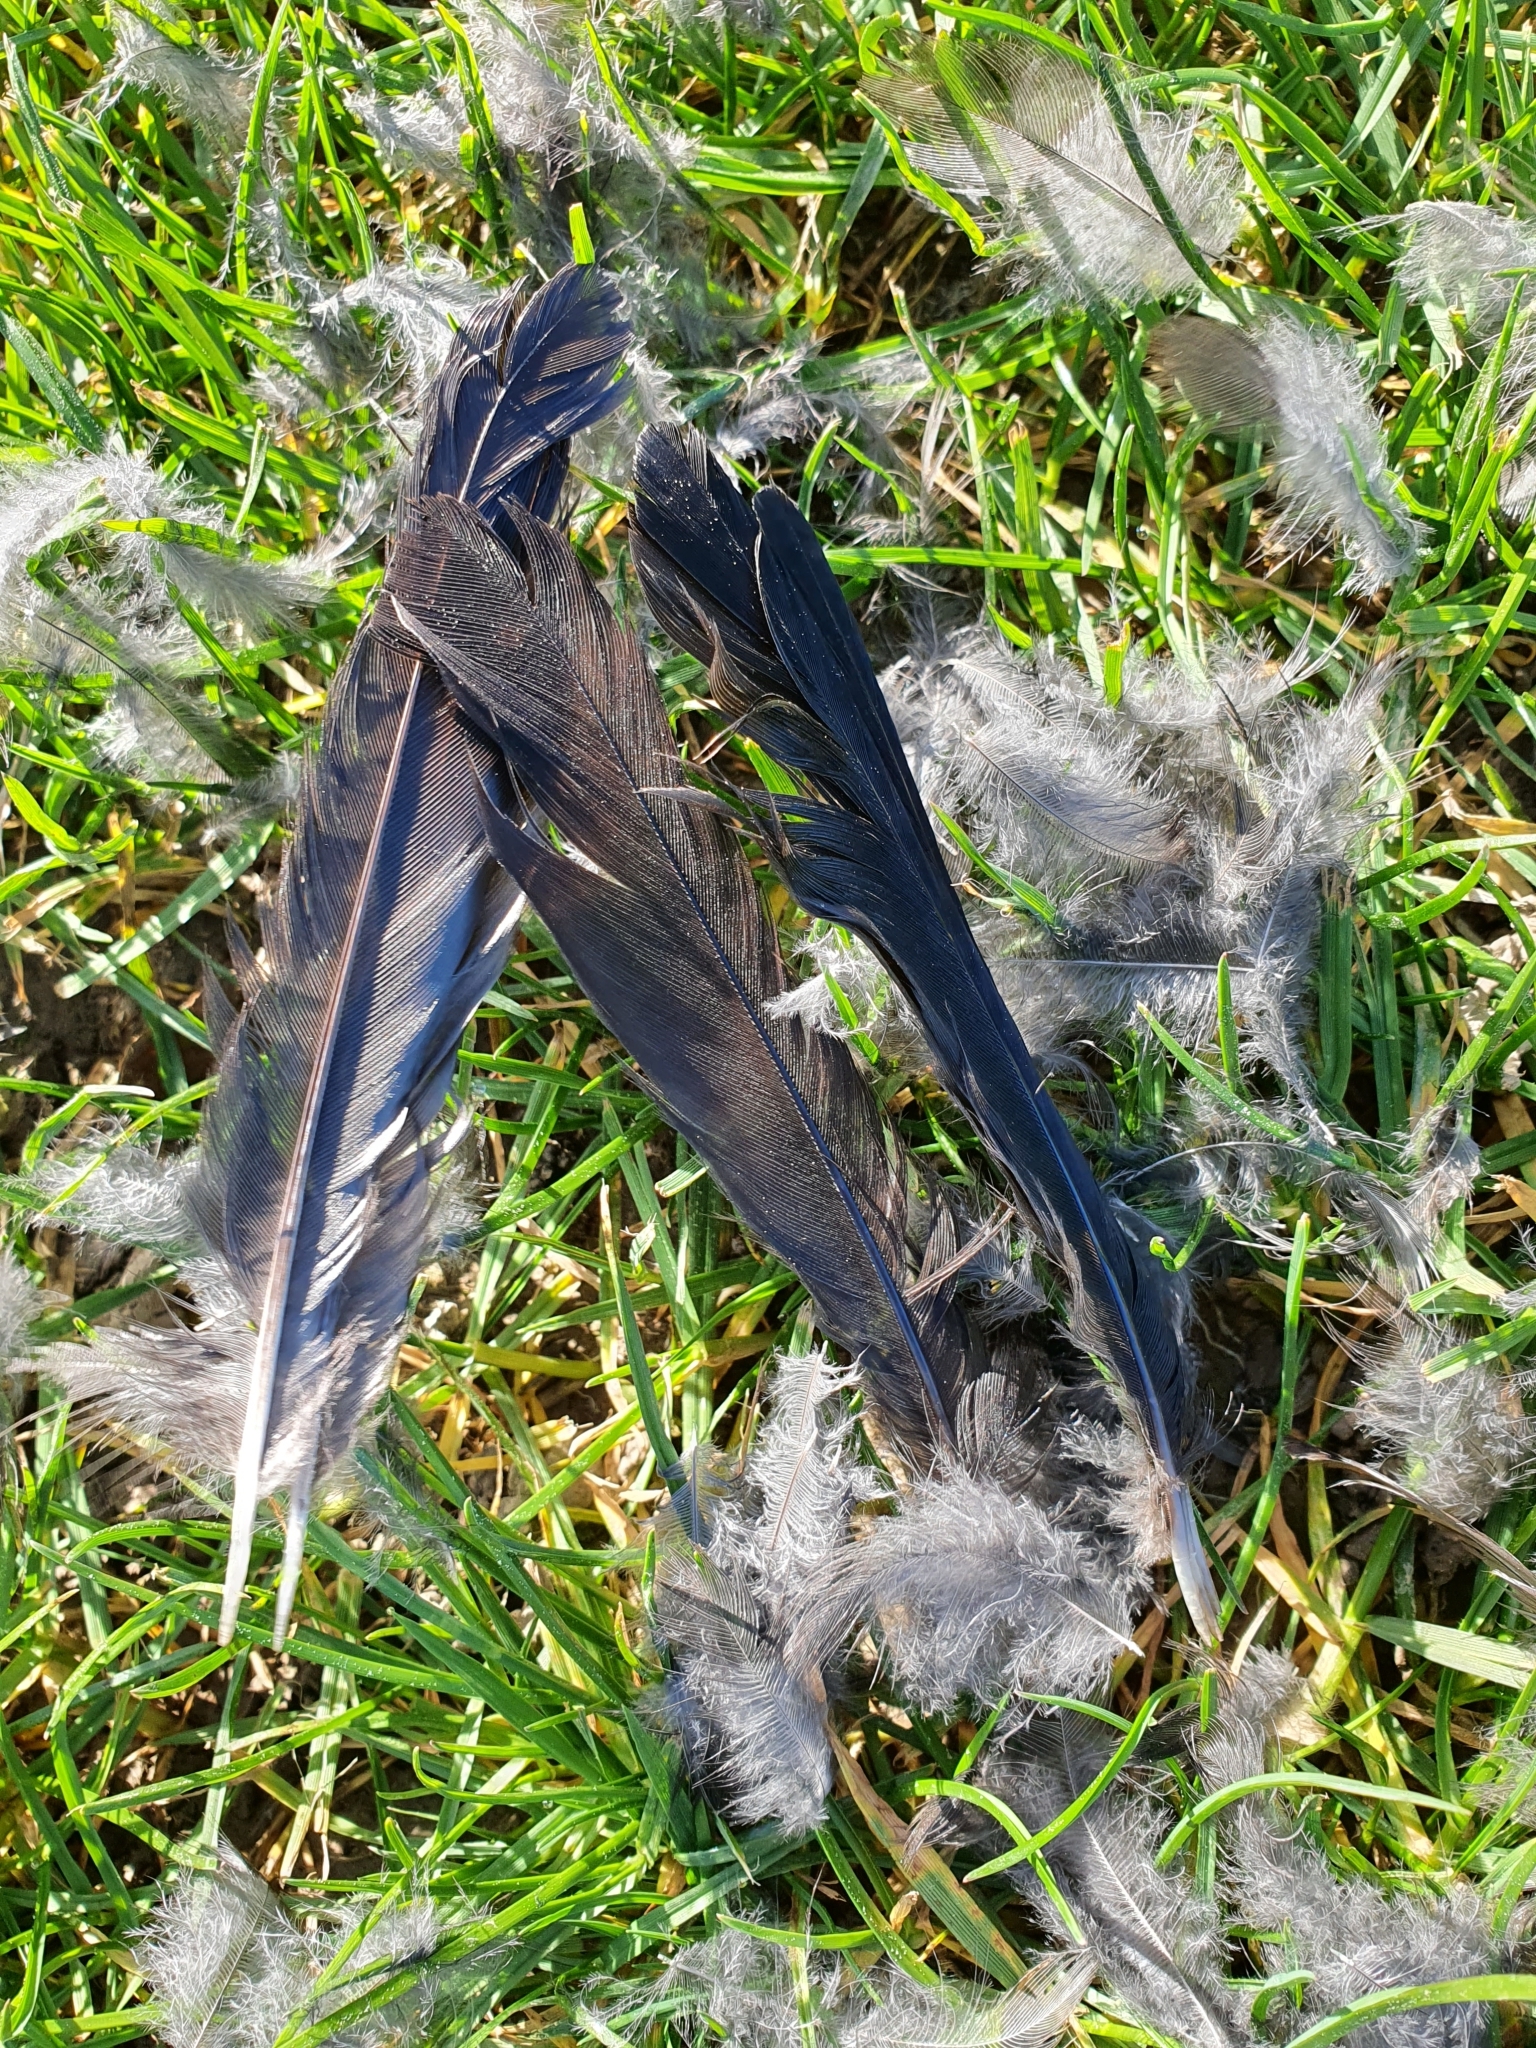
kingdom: Animalia
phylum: Chordata
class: Aves
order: Passeriformes
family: Turdidae
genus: Turdus
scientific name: Turdus merula
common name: Common blackbird
